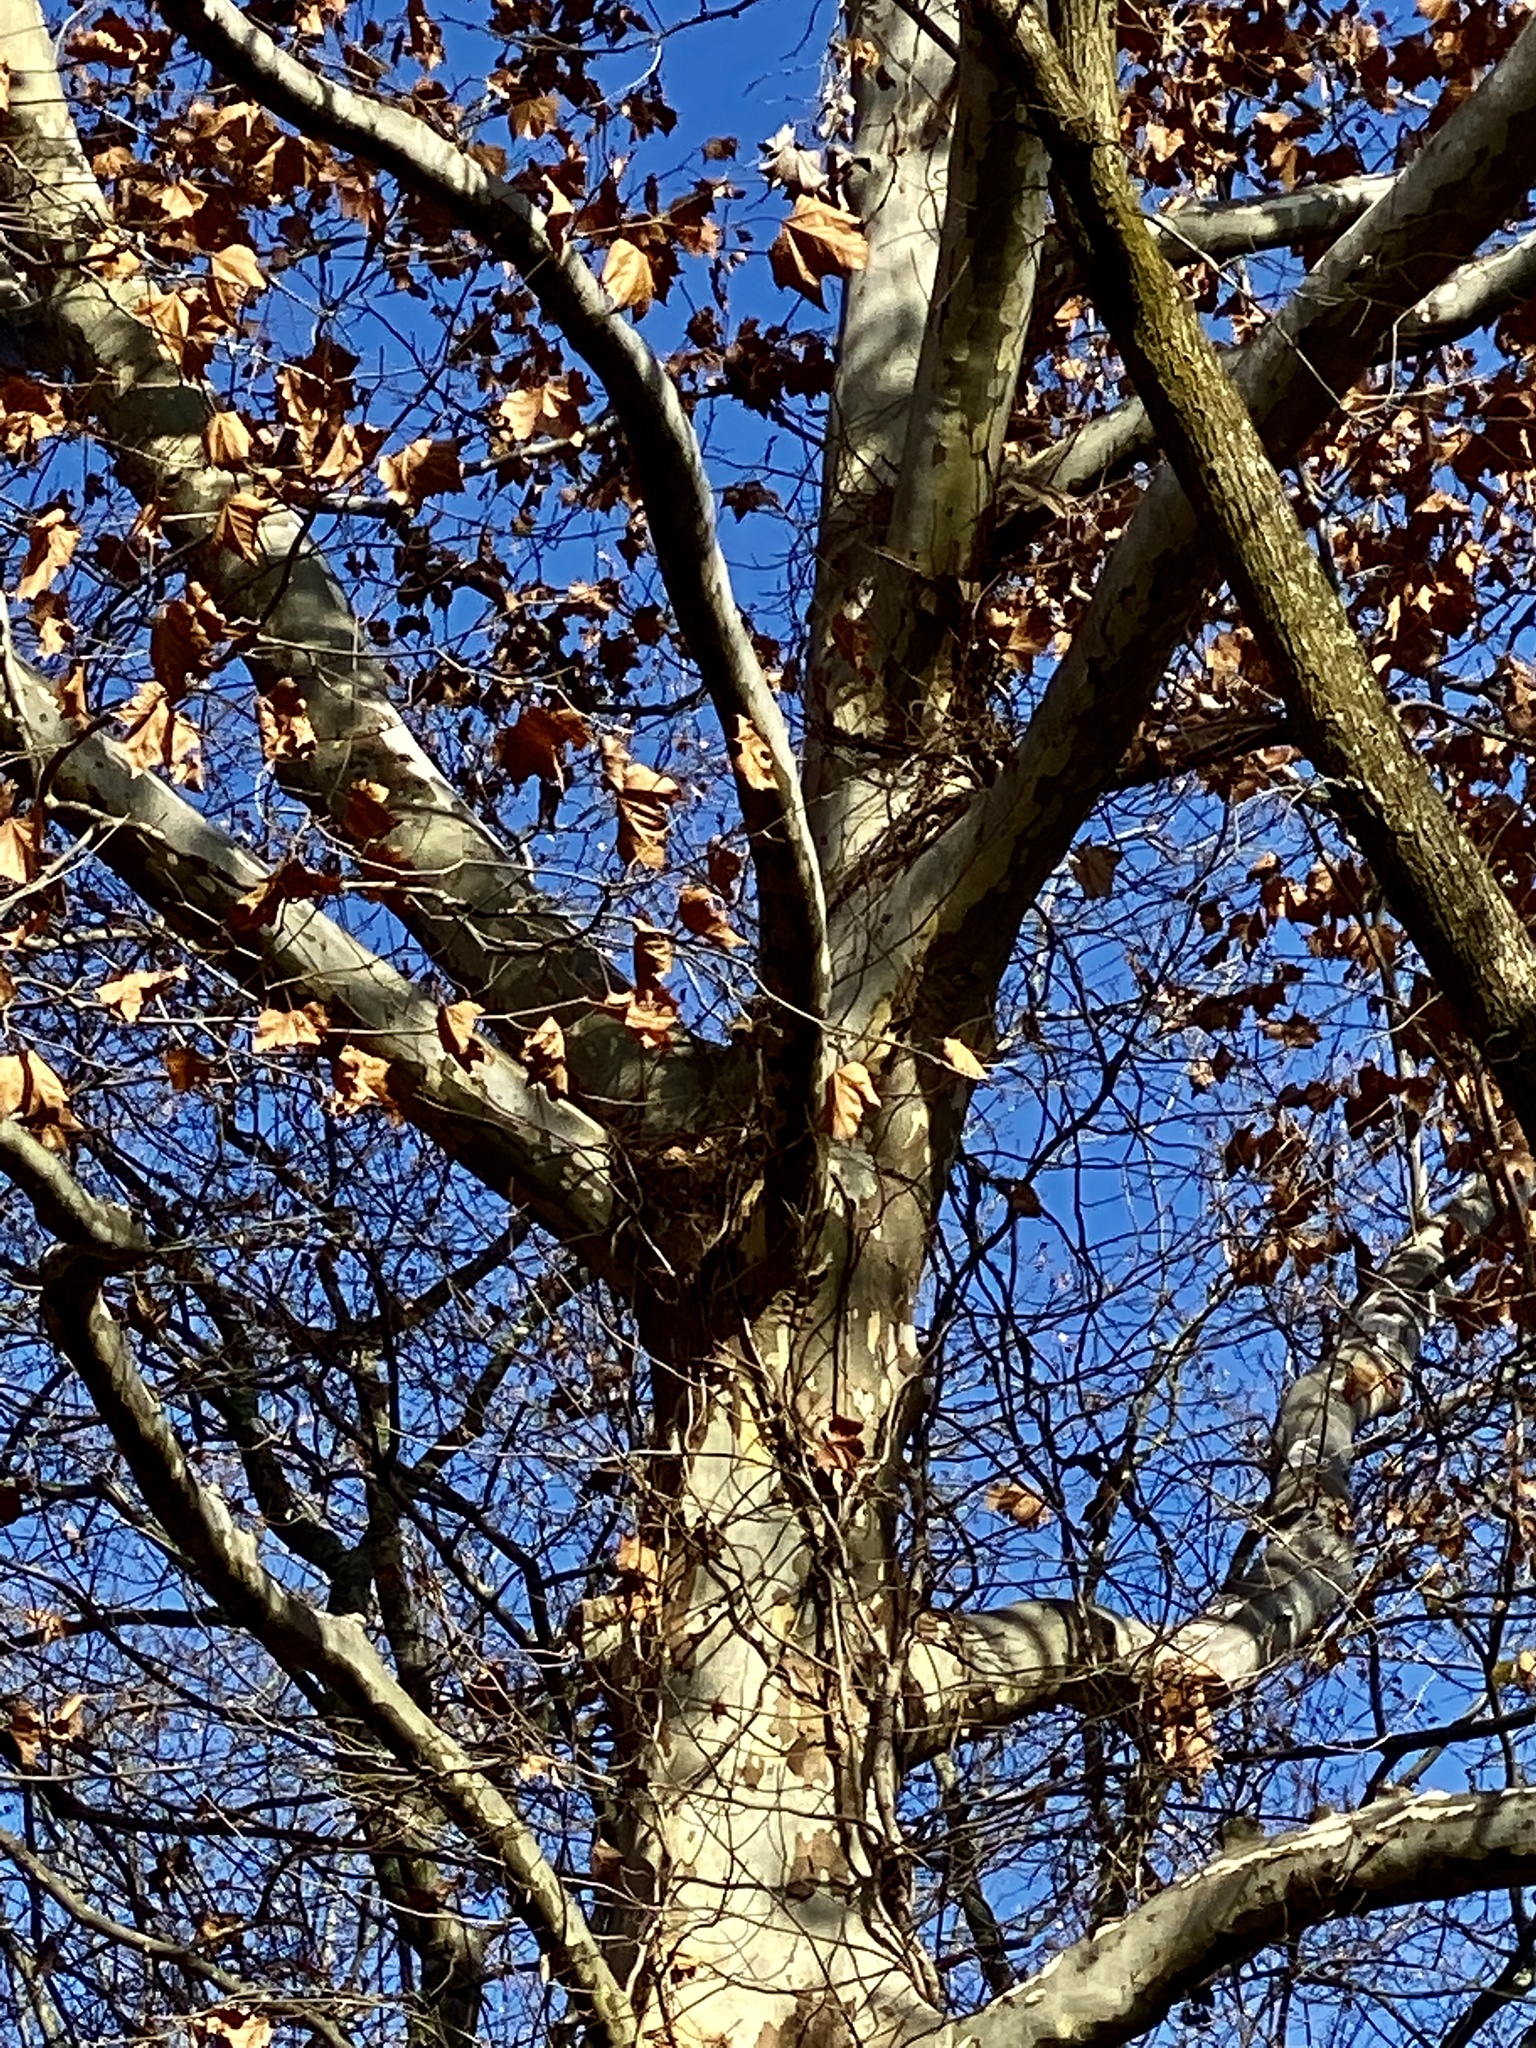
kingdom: Plantae
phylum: Tracheophyta
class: Magnoliopsida
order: Proteales
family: Platanaceae
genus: Platanus
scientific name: Platanus occidentalis
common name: American sycamore
